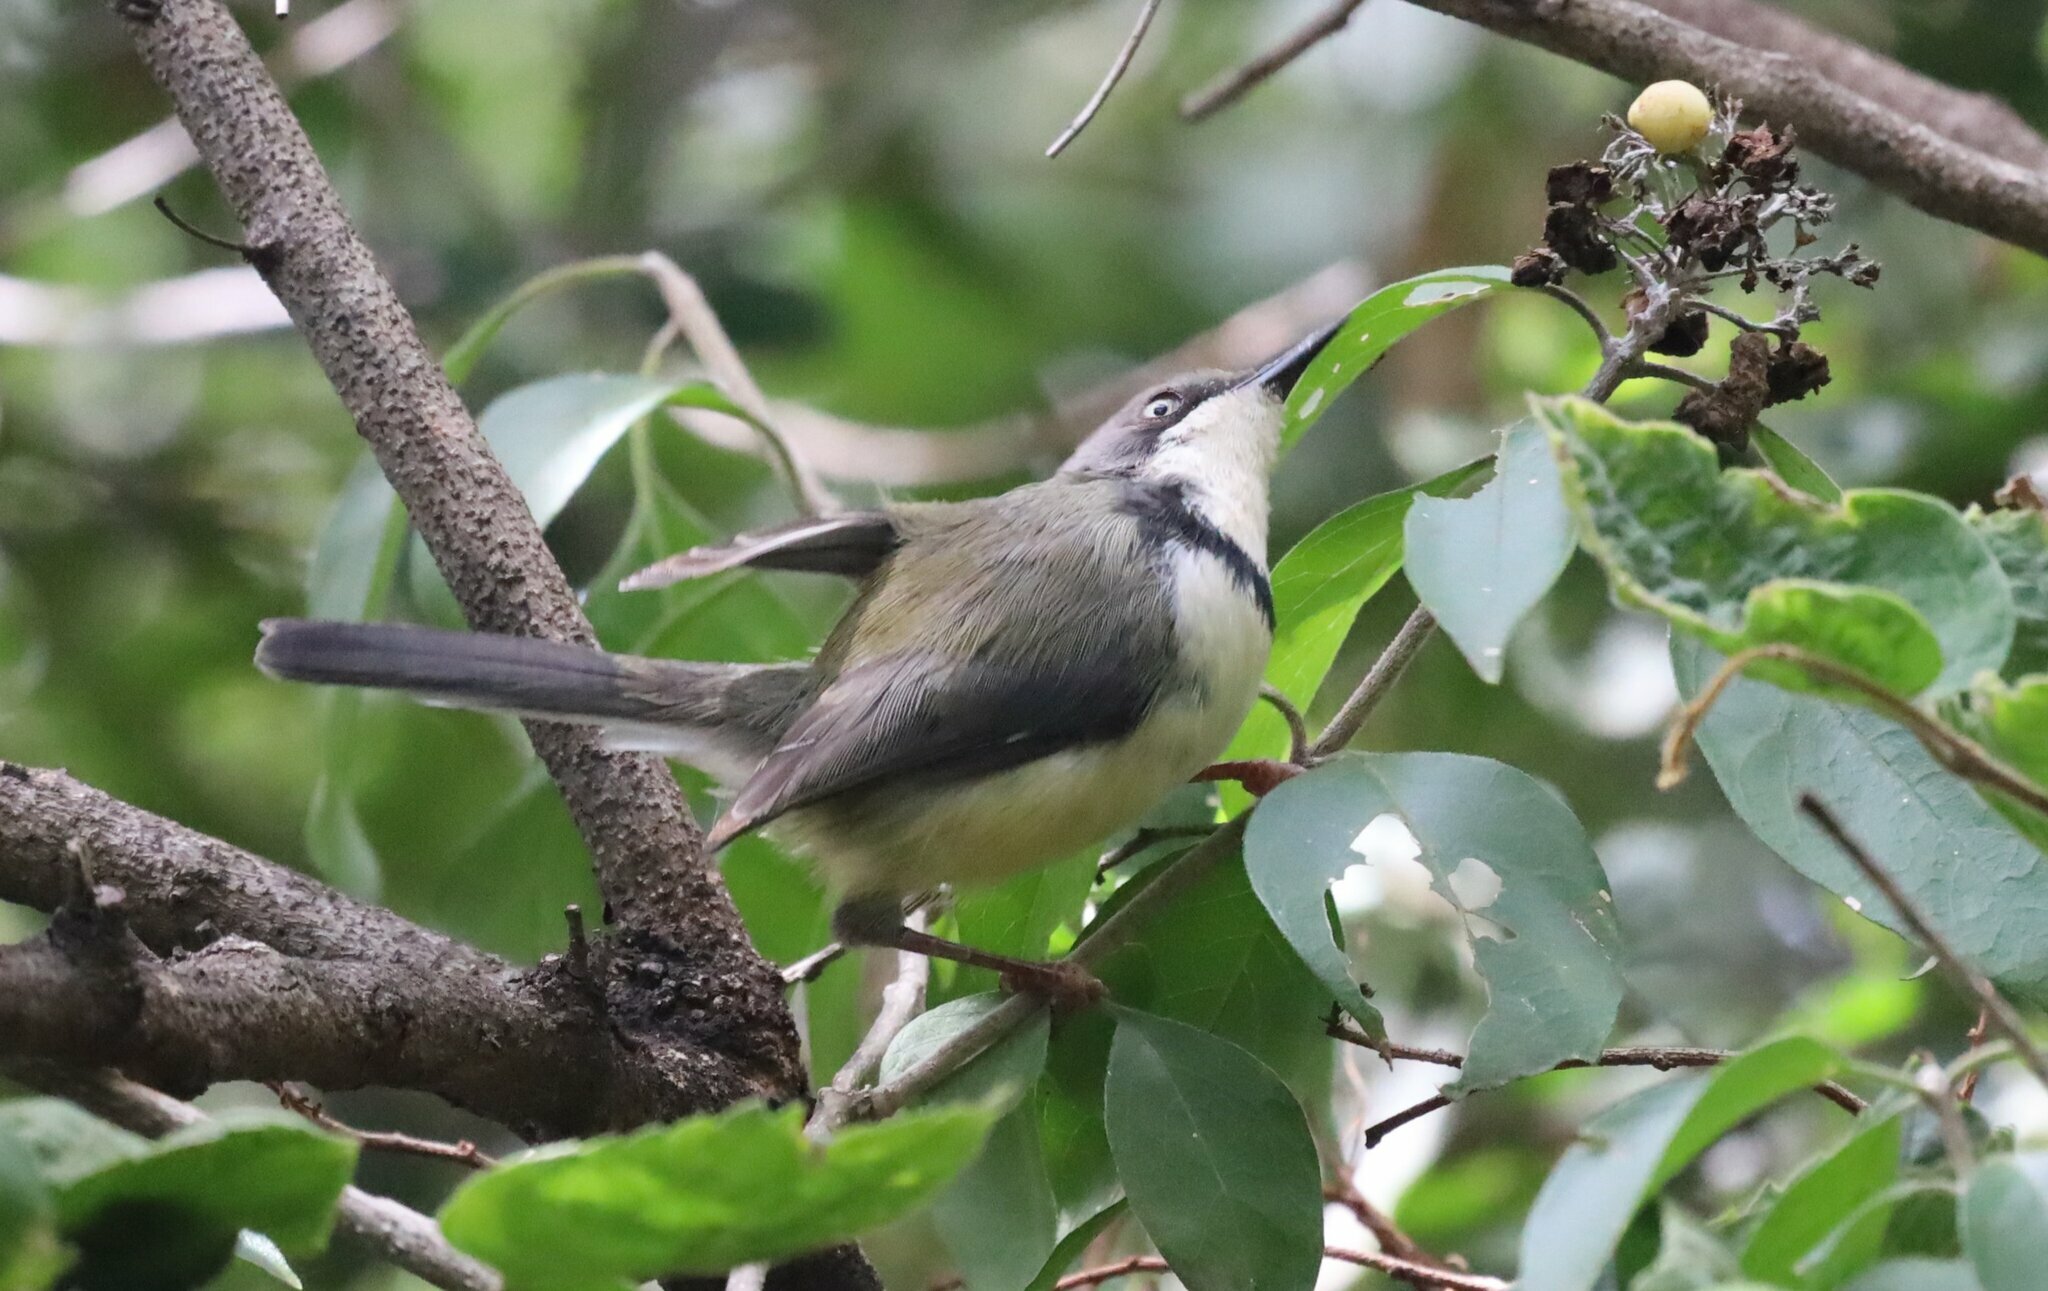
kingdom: Animalia
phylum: Chordata
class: Aves
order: Passeriformes
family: Cisticolidae
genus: Apalis
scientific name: Apalis thoracica
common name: Bar-throated apalis
